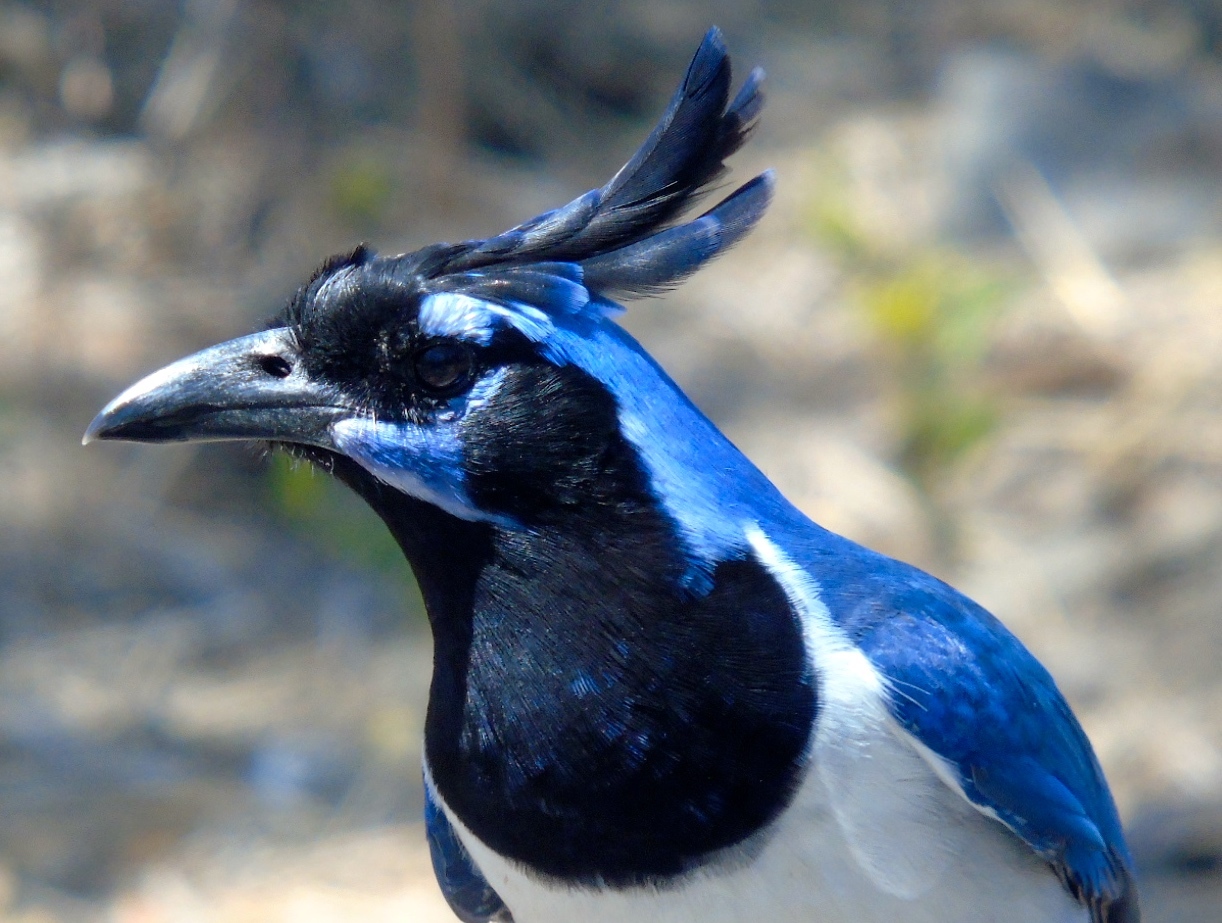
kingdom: Animalia
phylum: Chordata
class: Aves
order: Passeriformes
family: Corvidae
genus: Calocitta
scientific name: Calocitta colliei
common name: Black-throated magpie-jay
